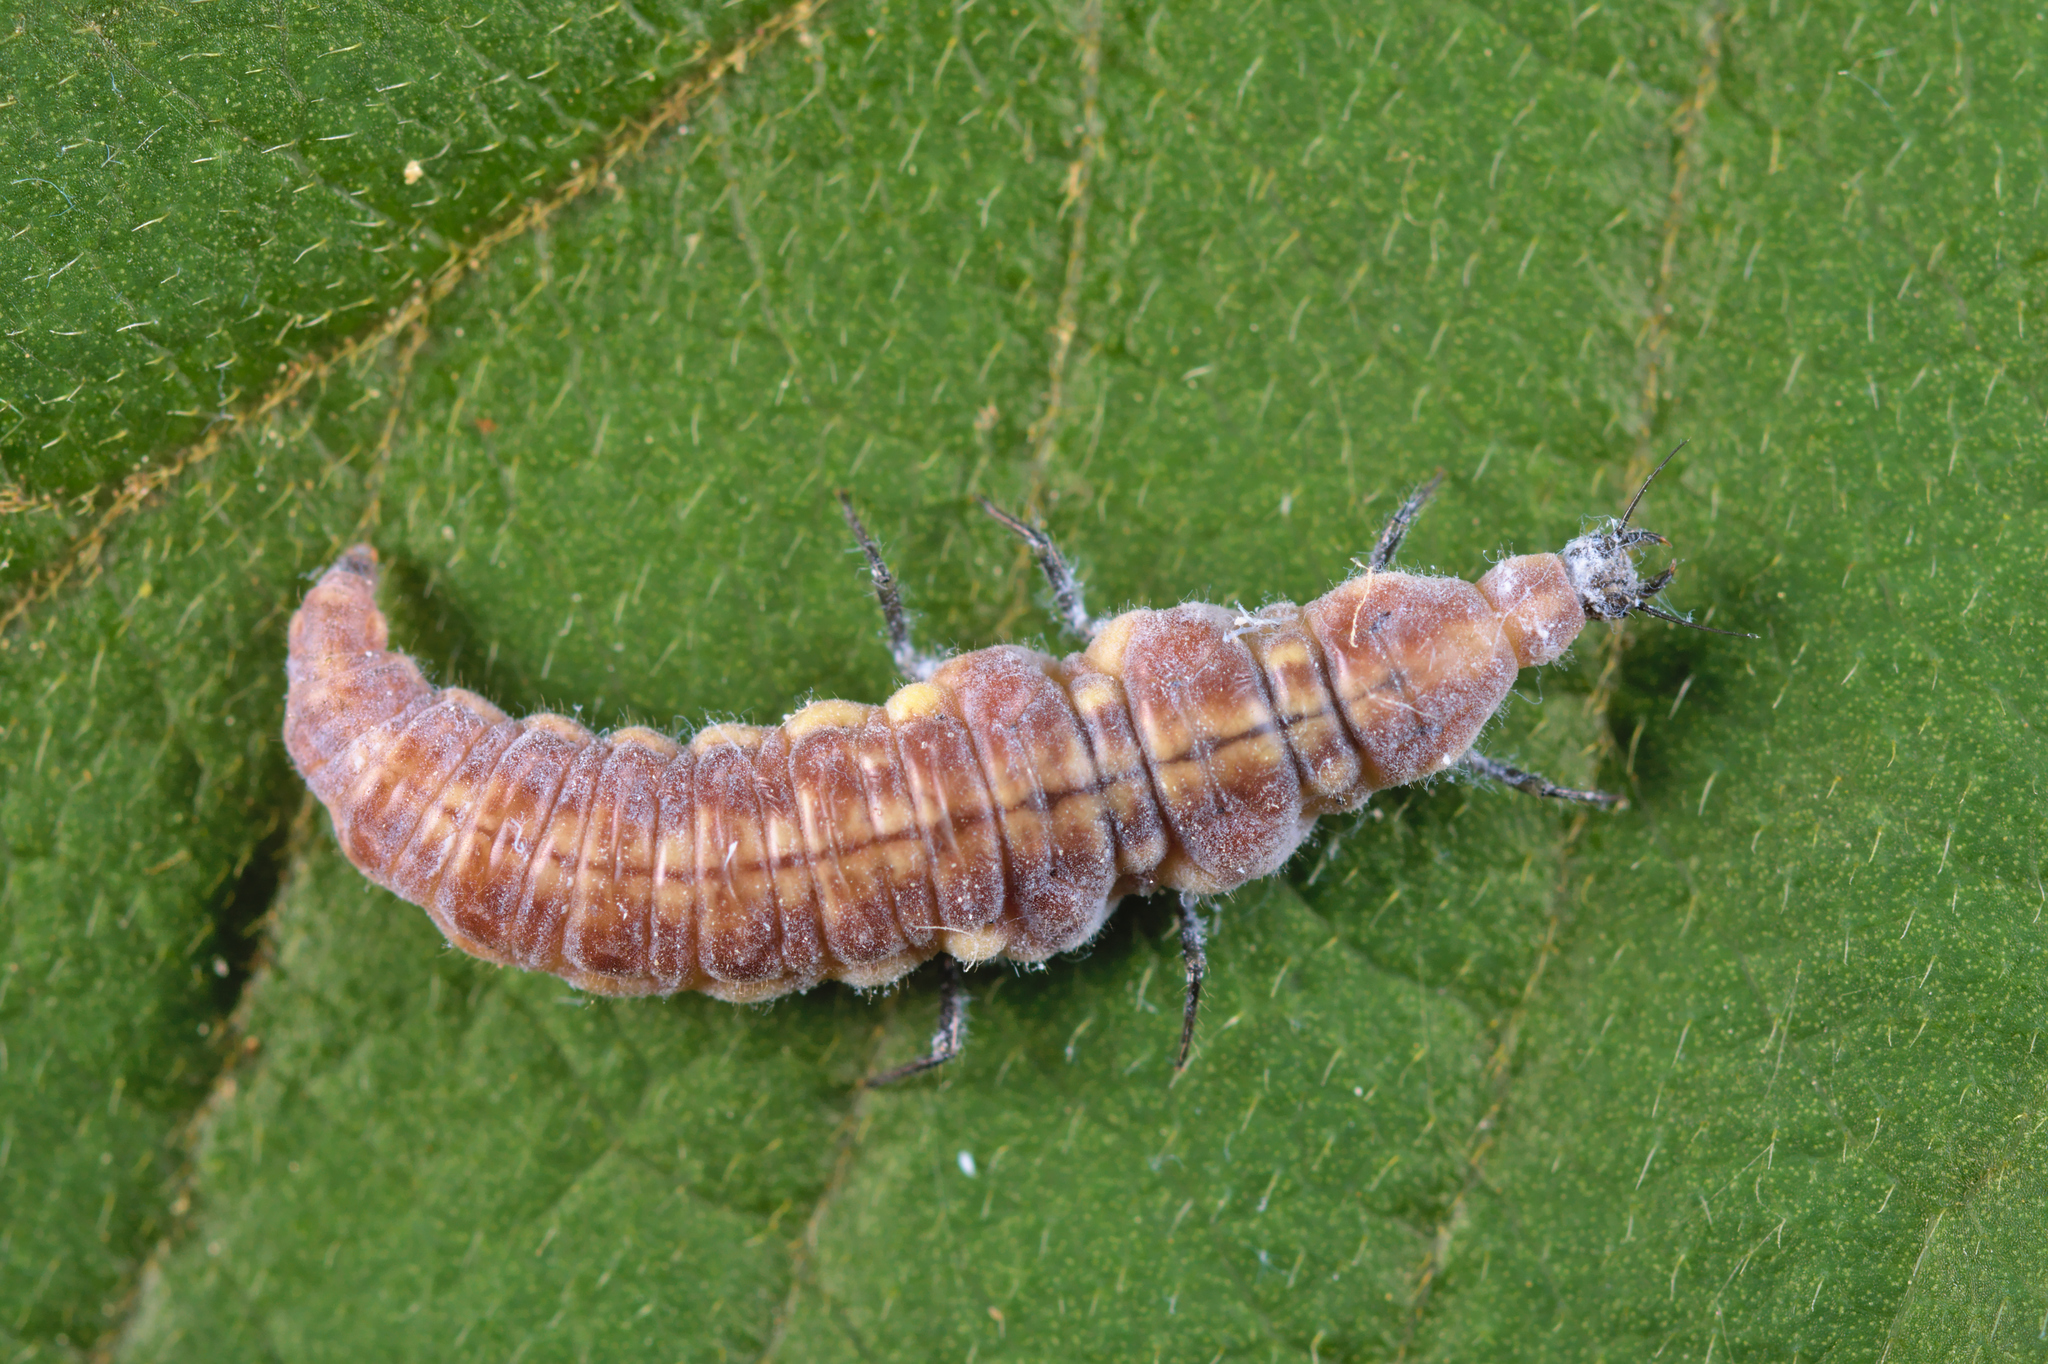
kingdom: Animalia
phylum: Arthropoda
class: Insecta
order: Neuroptera
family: Hemerobiidae
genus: Drepanepteryx
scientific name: Drepanepteryx phalaenoides
